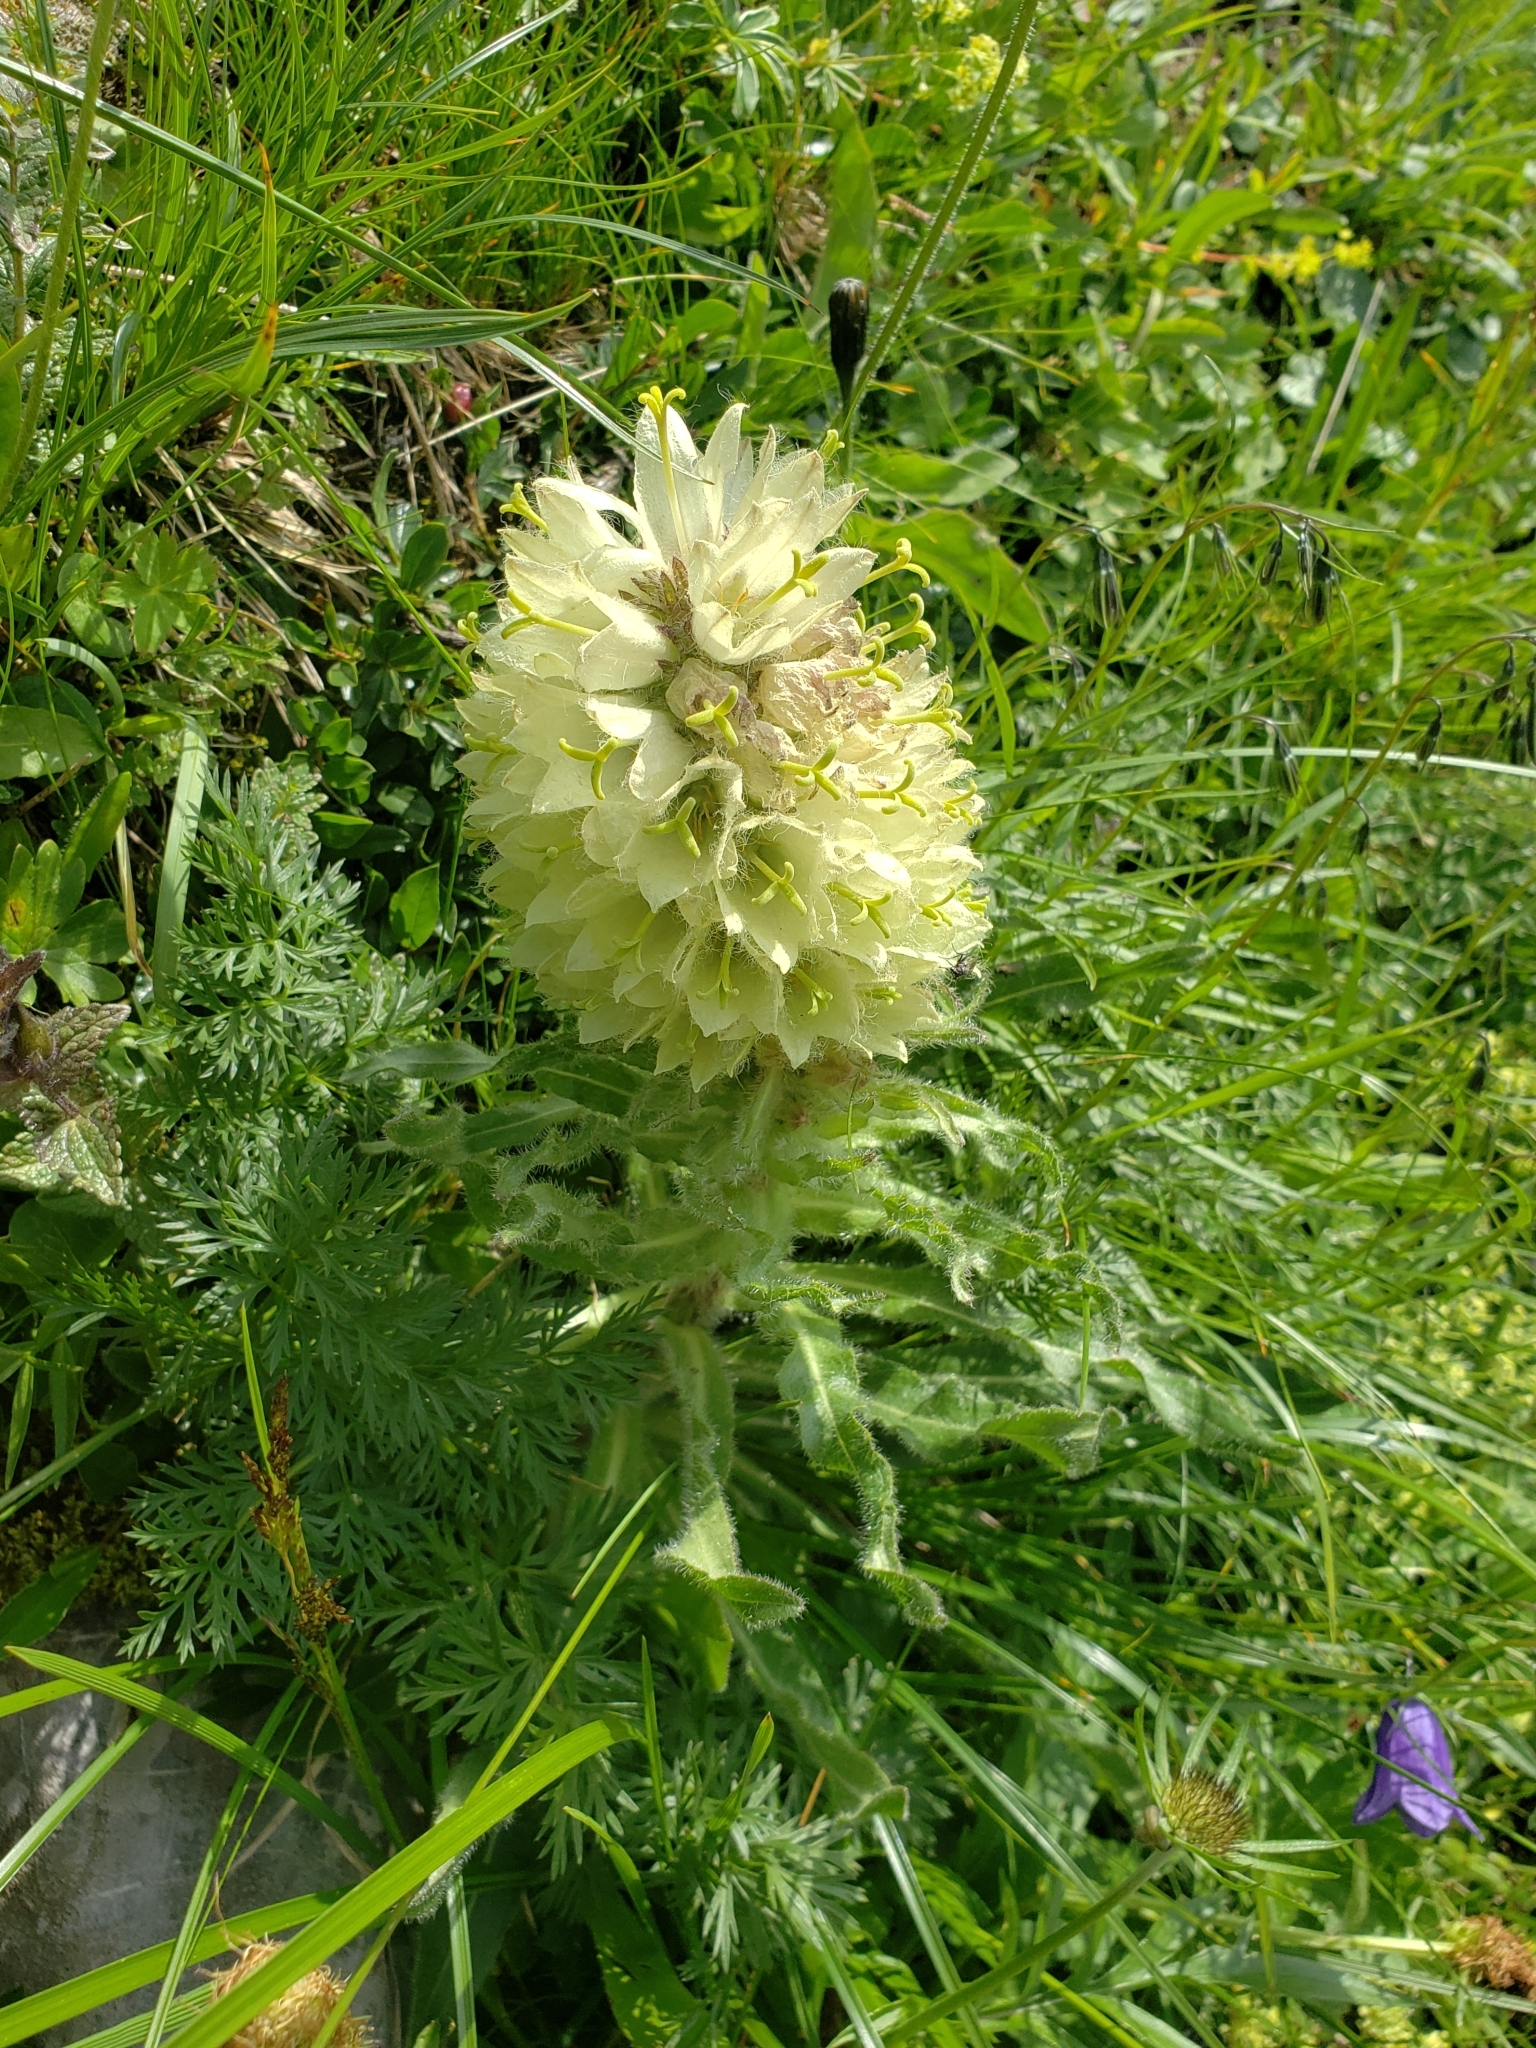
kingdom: Plantae
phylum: Tracheophyta
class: Magnoliopsida
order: Asterales
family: Campanulaceae
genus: Campanula
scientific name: Campanula thyrsoides
